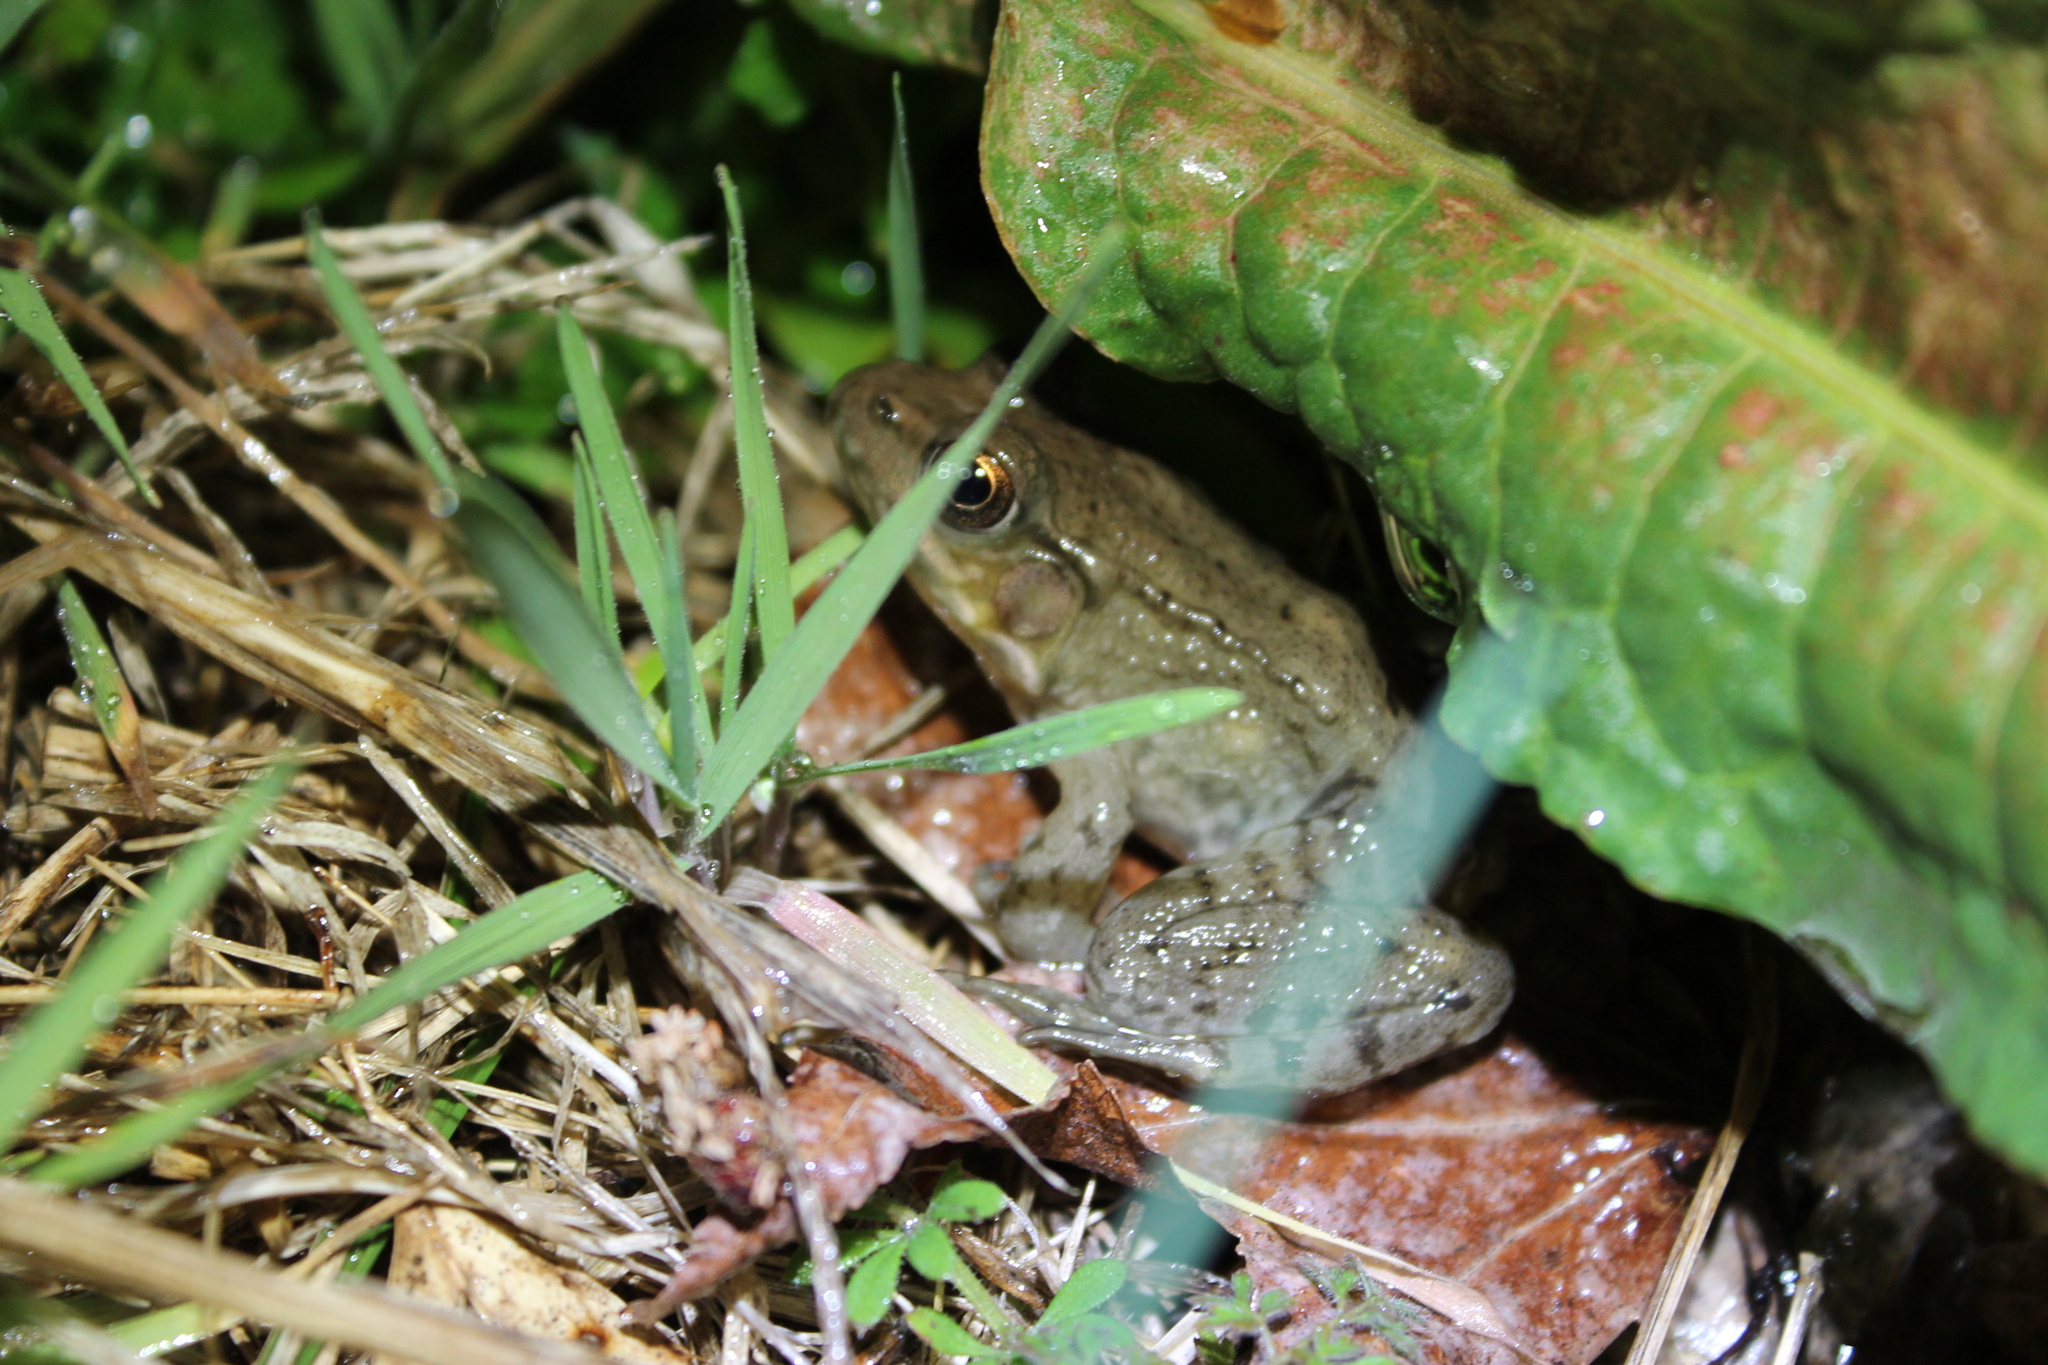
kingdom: Animalia
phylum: Chordata
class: Amphibia
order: Anura
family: Ranidae
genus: Lithobates
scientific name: Lithobates clamitans
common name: Green frog
